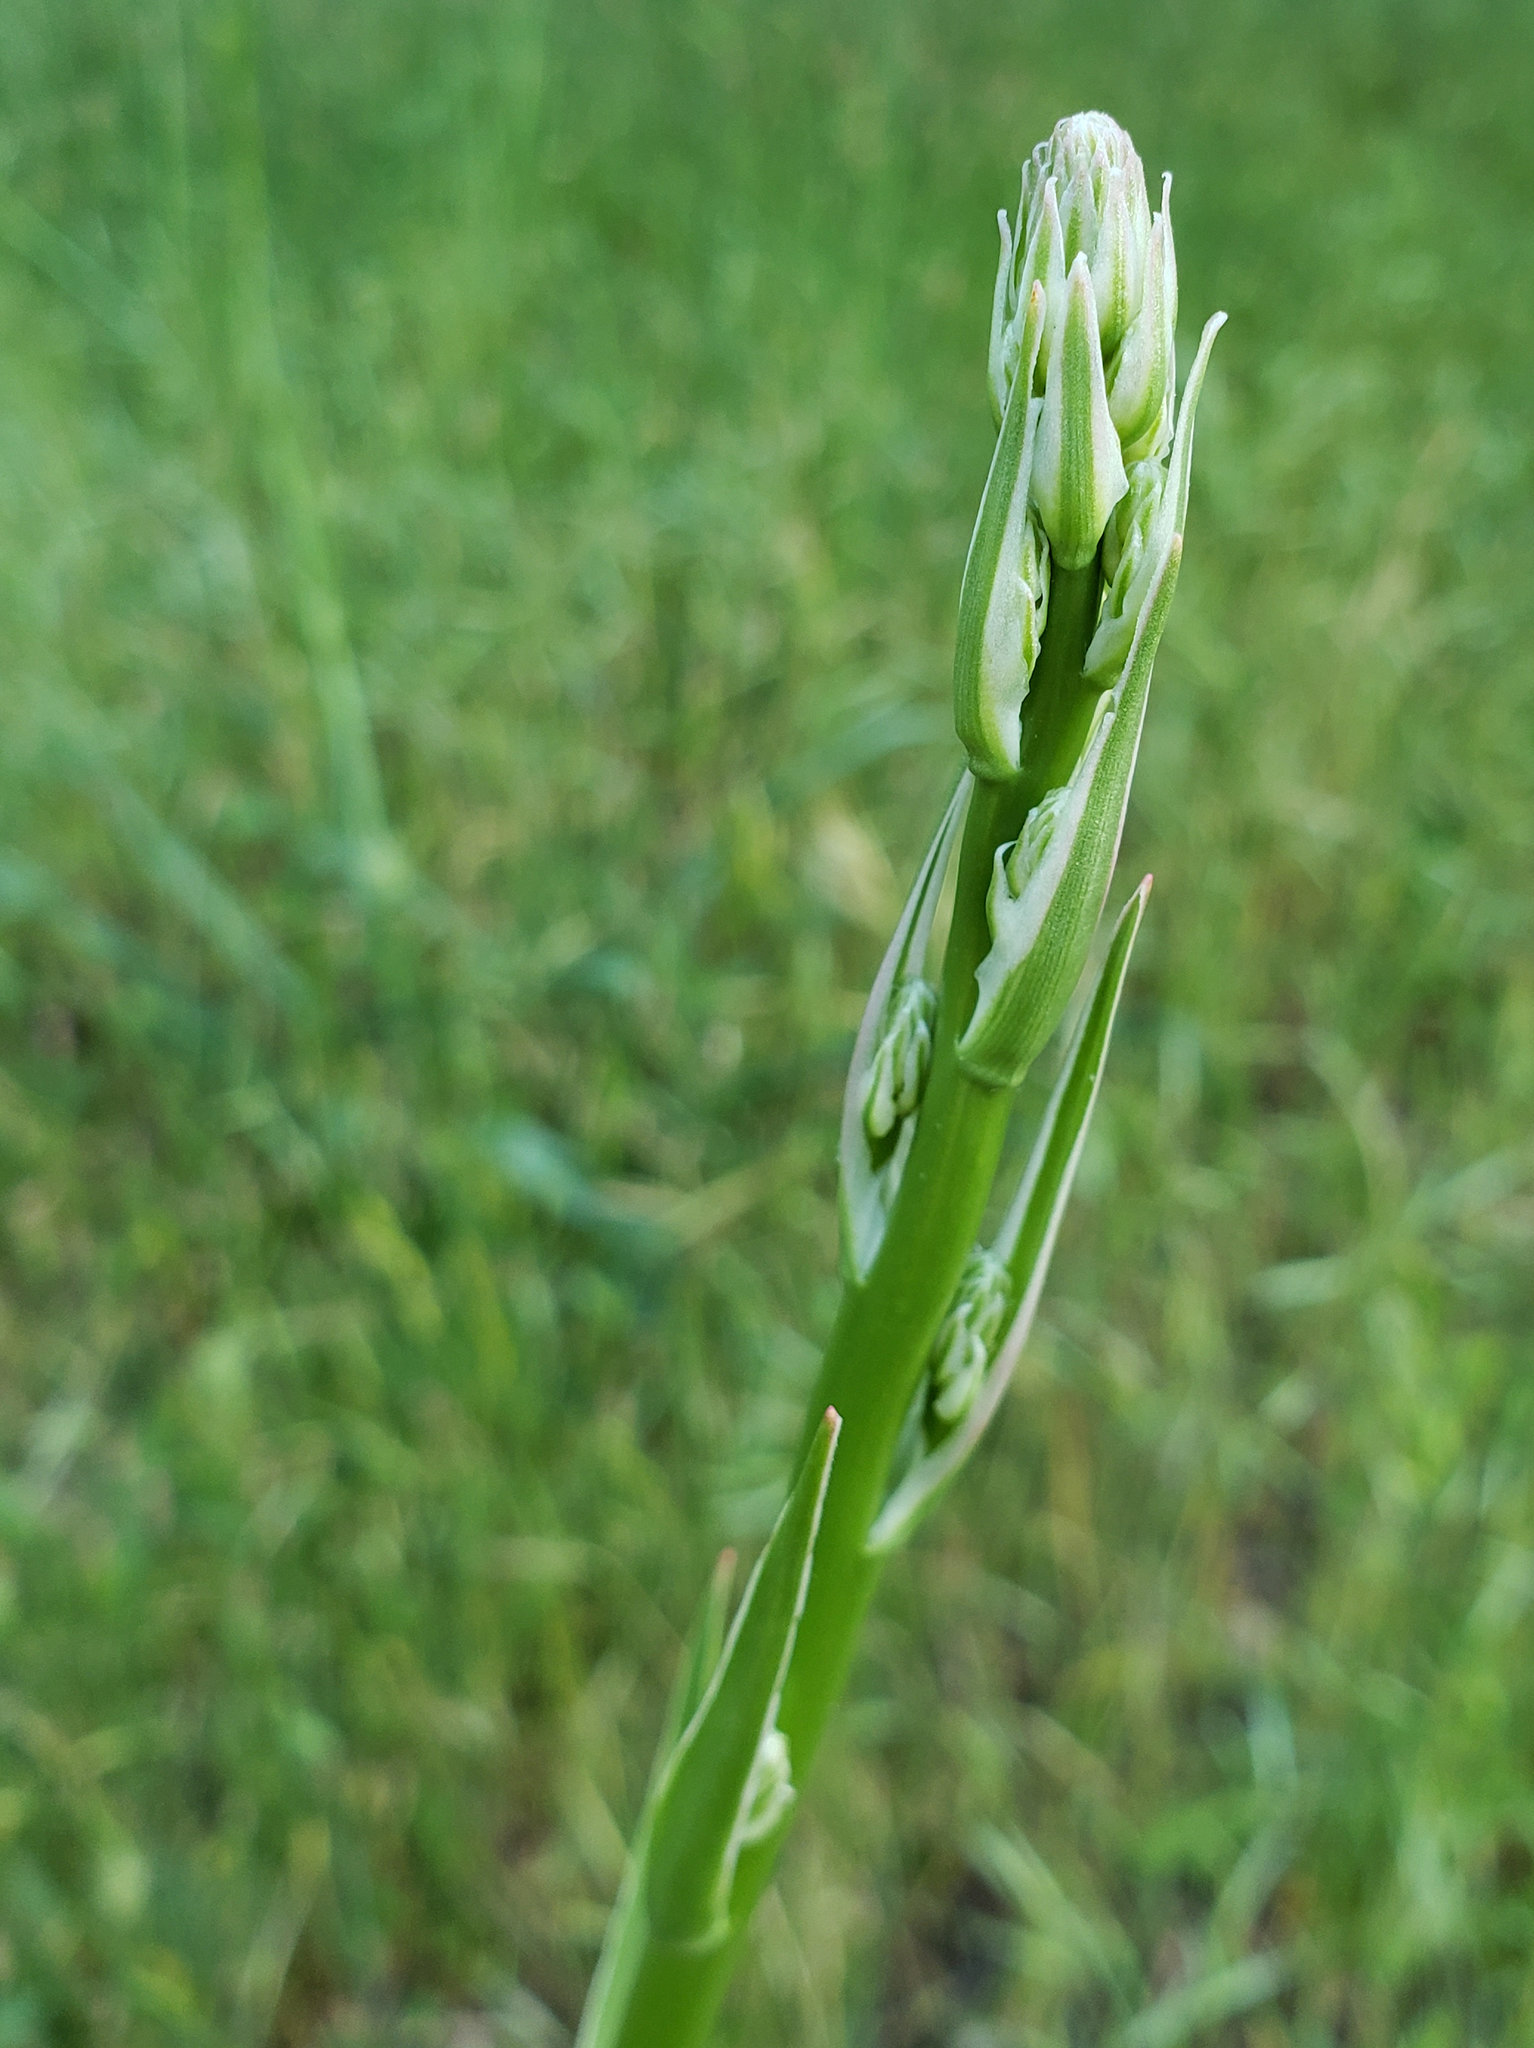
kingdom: Plantae
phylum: Tracheophyta
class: Liliopsida
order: Asparagales
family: Asparagaceae
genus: Chlorogalum
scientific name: Chlorogalum pomeridianum
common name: Amole
